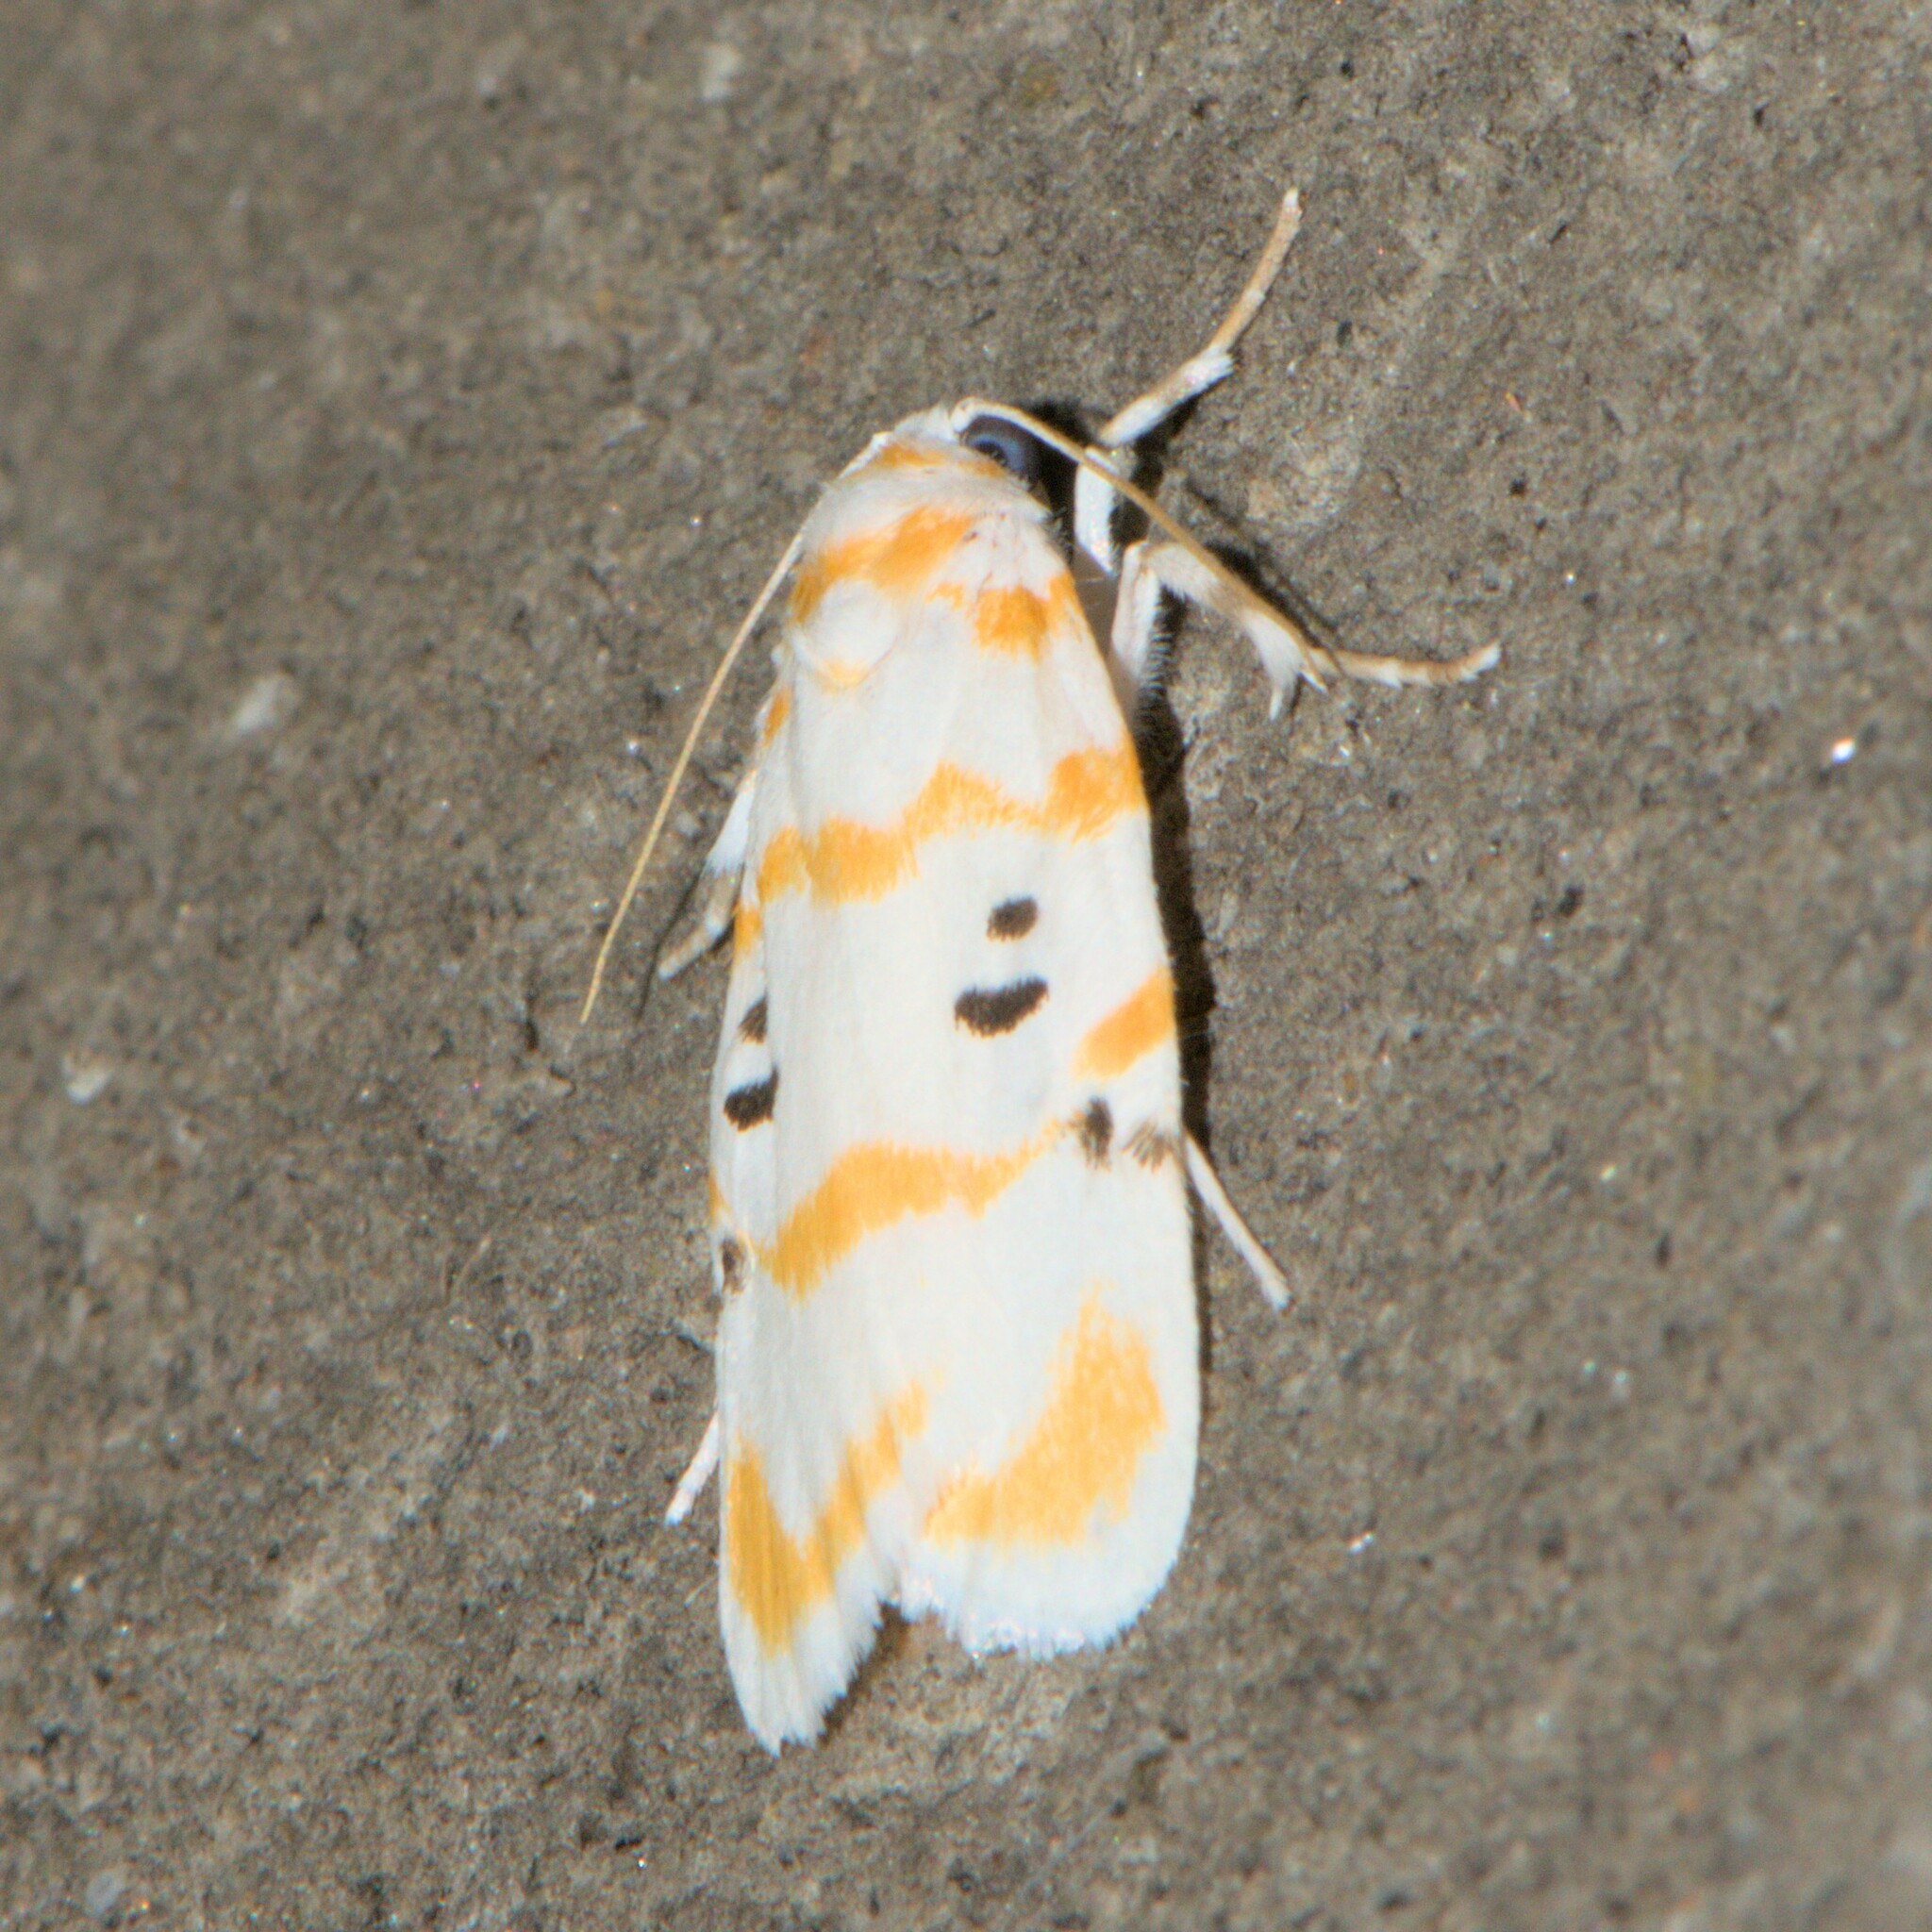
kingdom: Animalia
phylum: Arthropoda
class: Insecta
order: Lepidoptera
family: Erebidae
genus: Cyana
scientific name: Cyana arama
